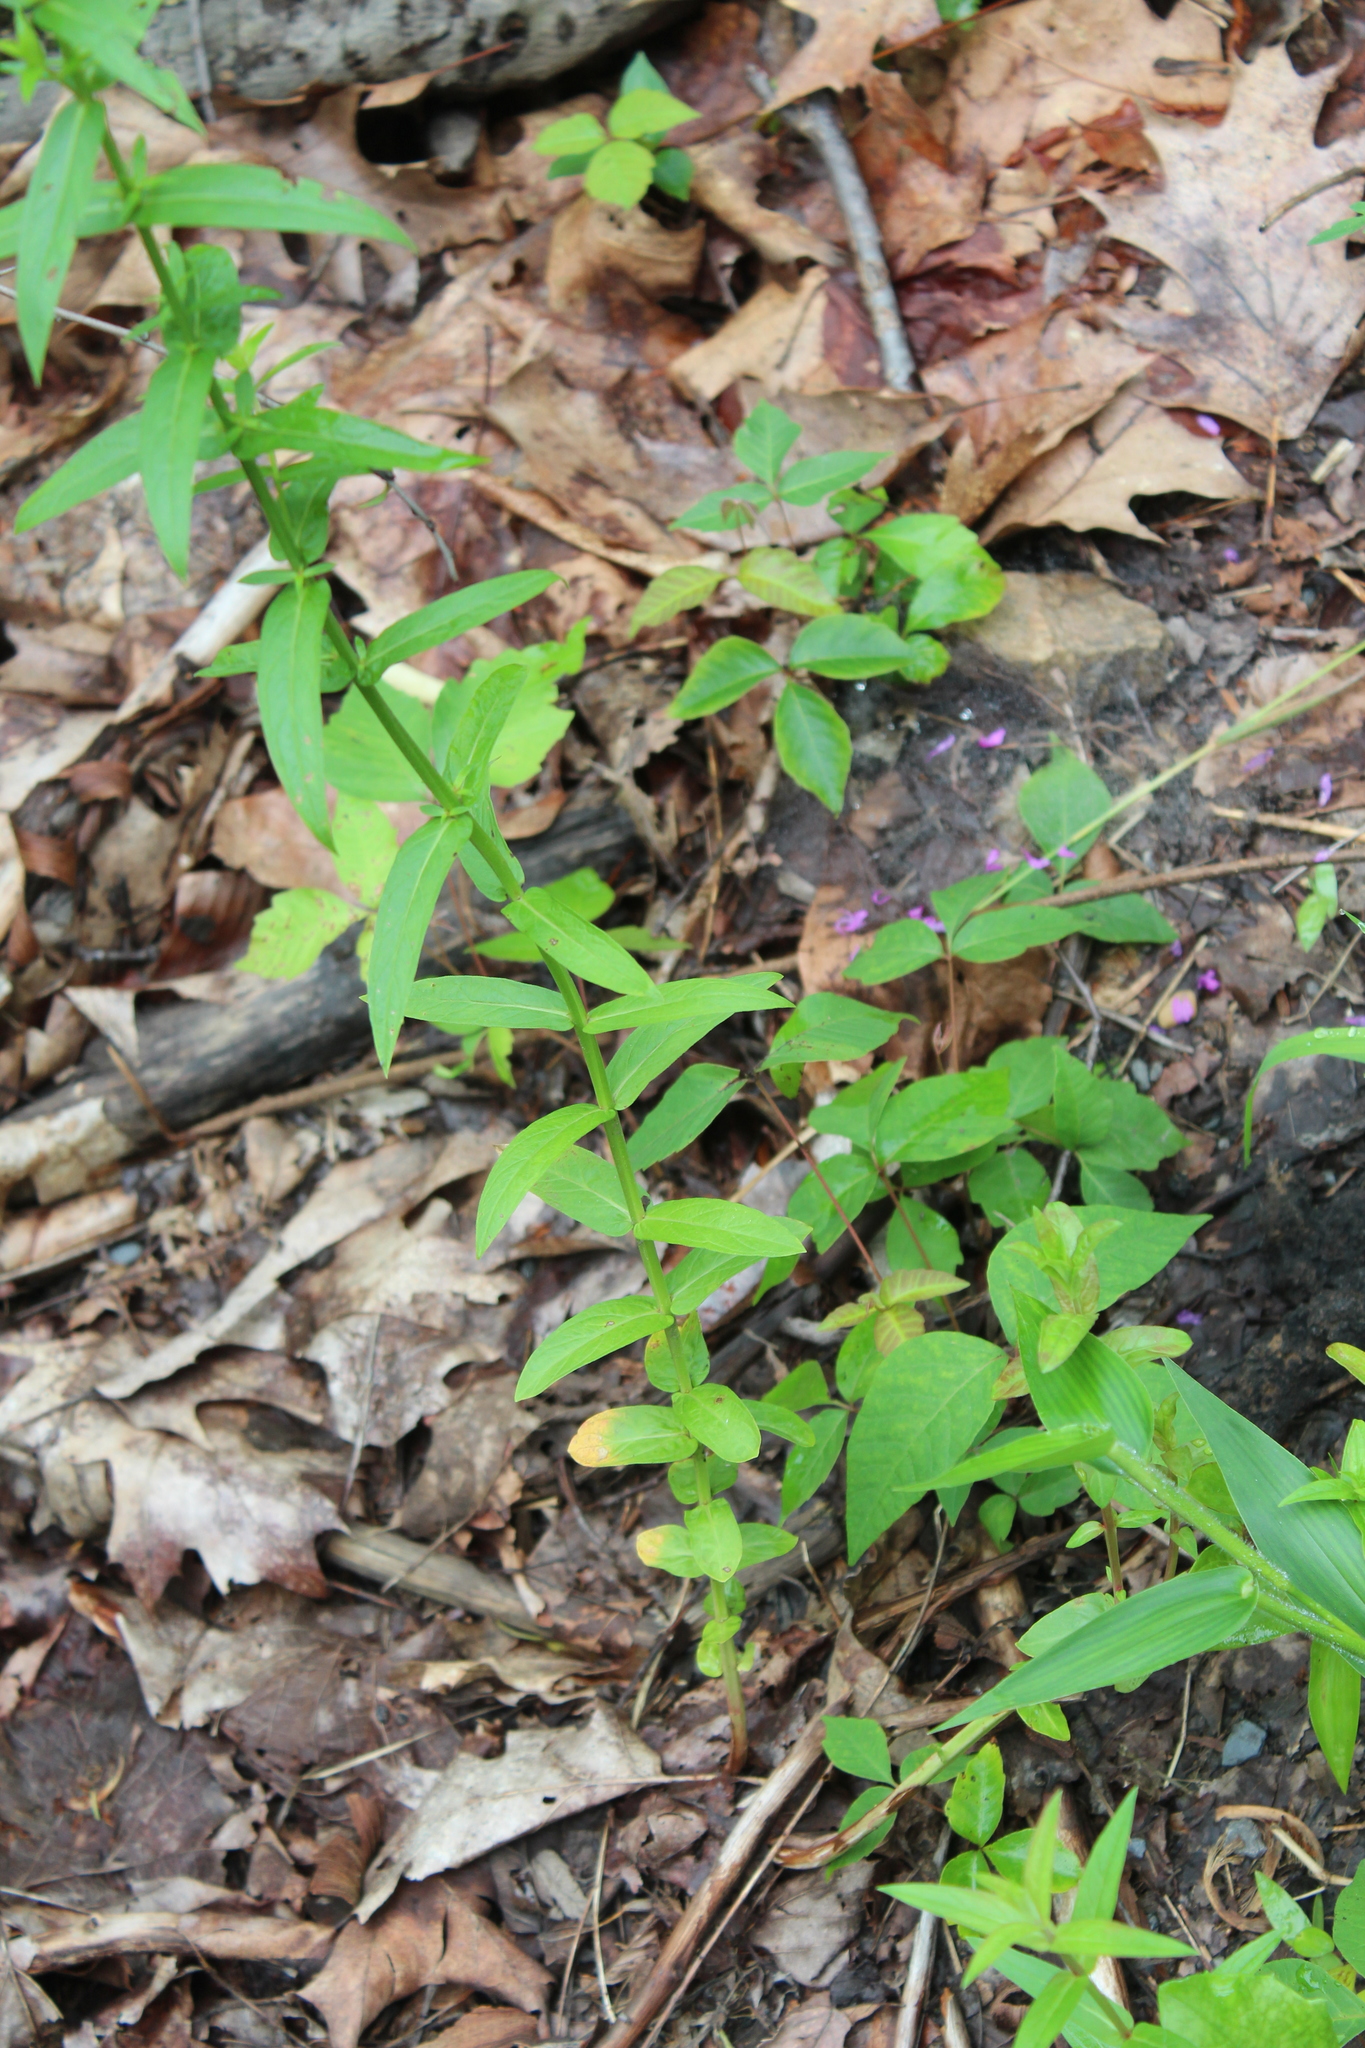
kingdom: Plantae
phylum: Tracheophyta
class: Magnoliopsida
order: Myrtales
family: Lythraceae
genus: Lythrum
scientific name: Lythrum salicaria
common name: Purple loosestrife
